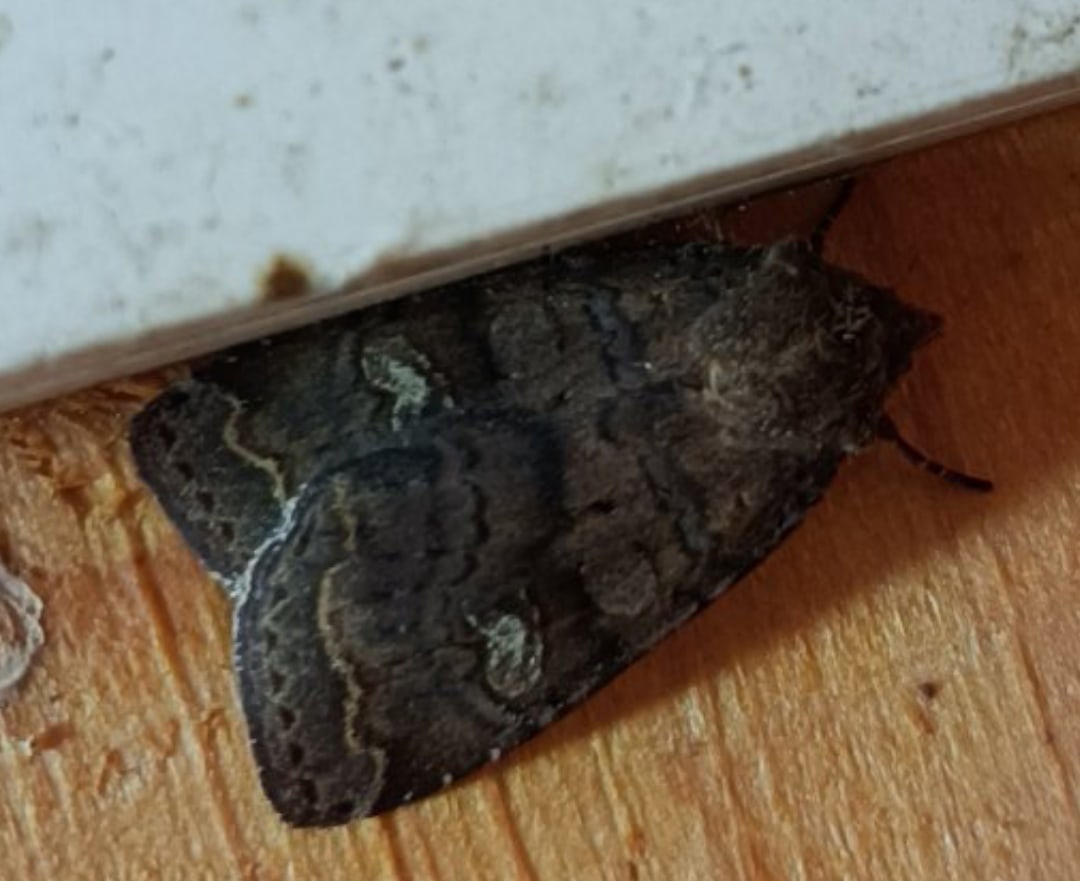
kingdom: Animalia
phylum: Arthropoda
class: Insecta
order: Lepidoptera
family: Noctuidae
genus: Diarsia
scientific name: Diarsia dahlii
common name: Barred chestnut
